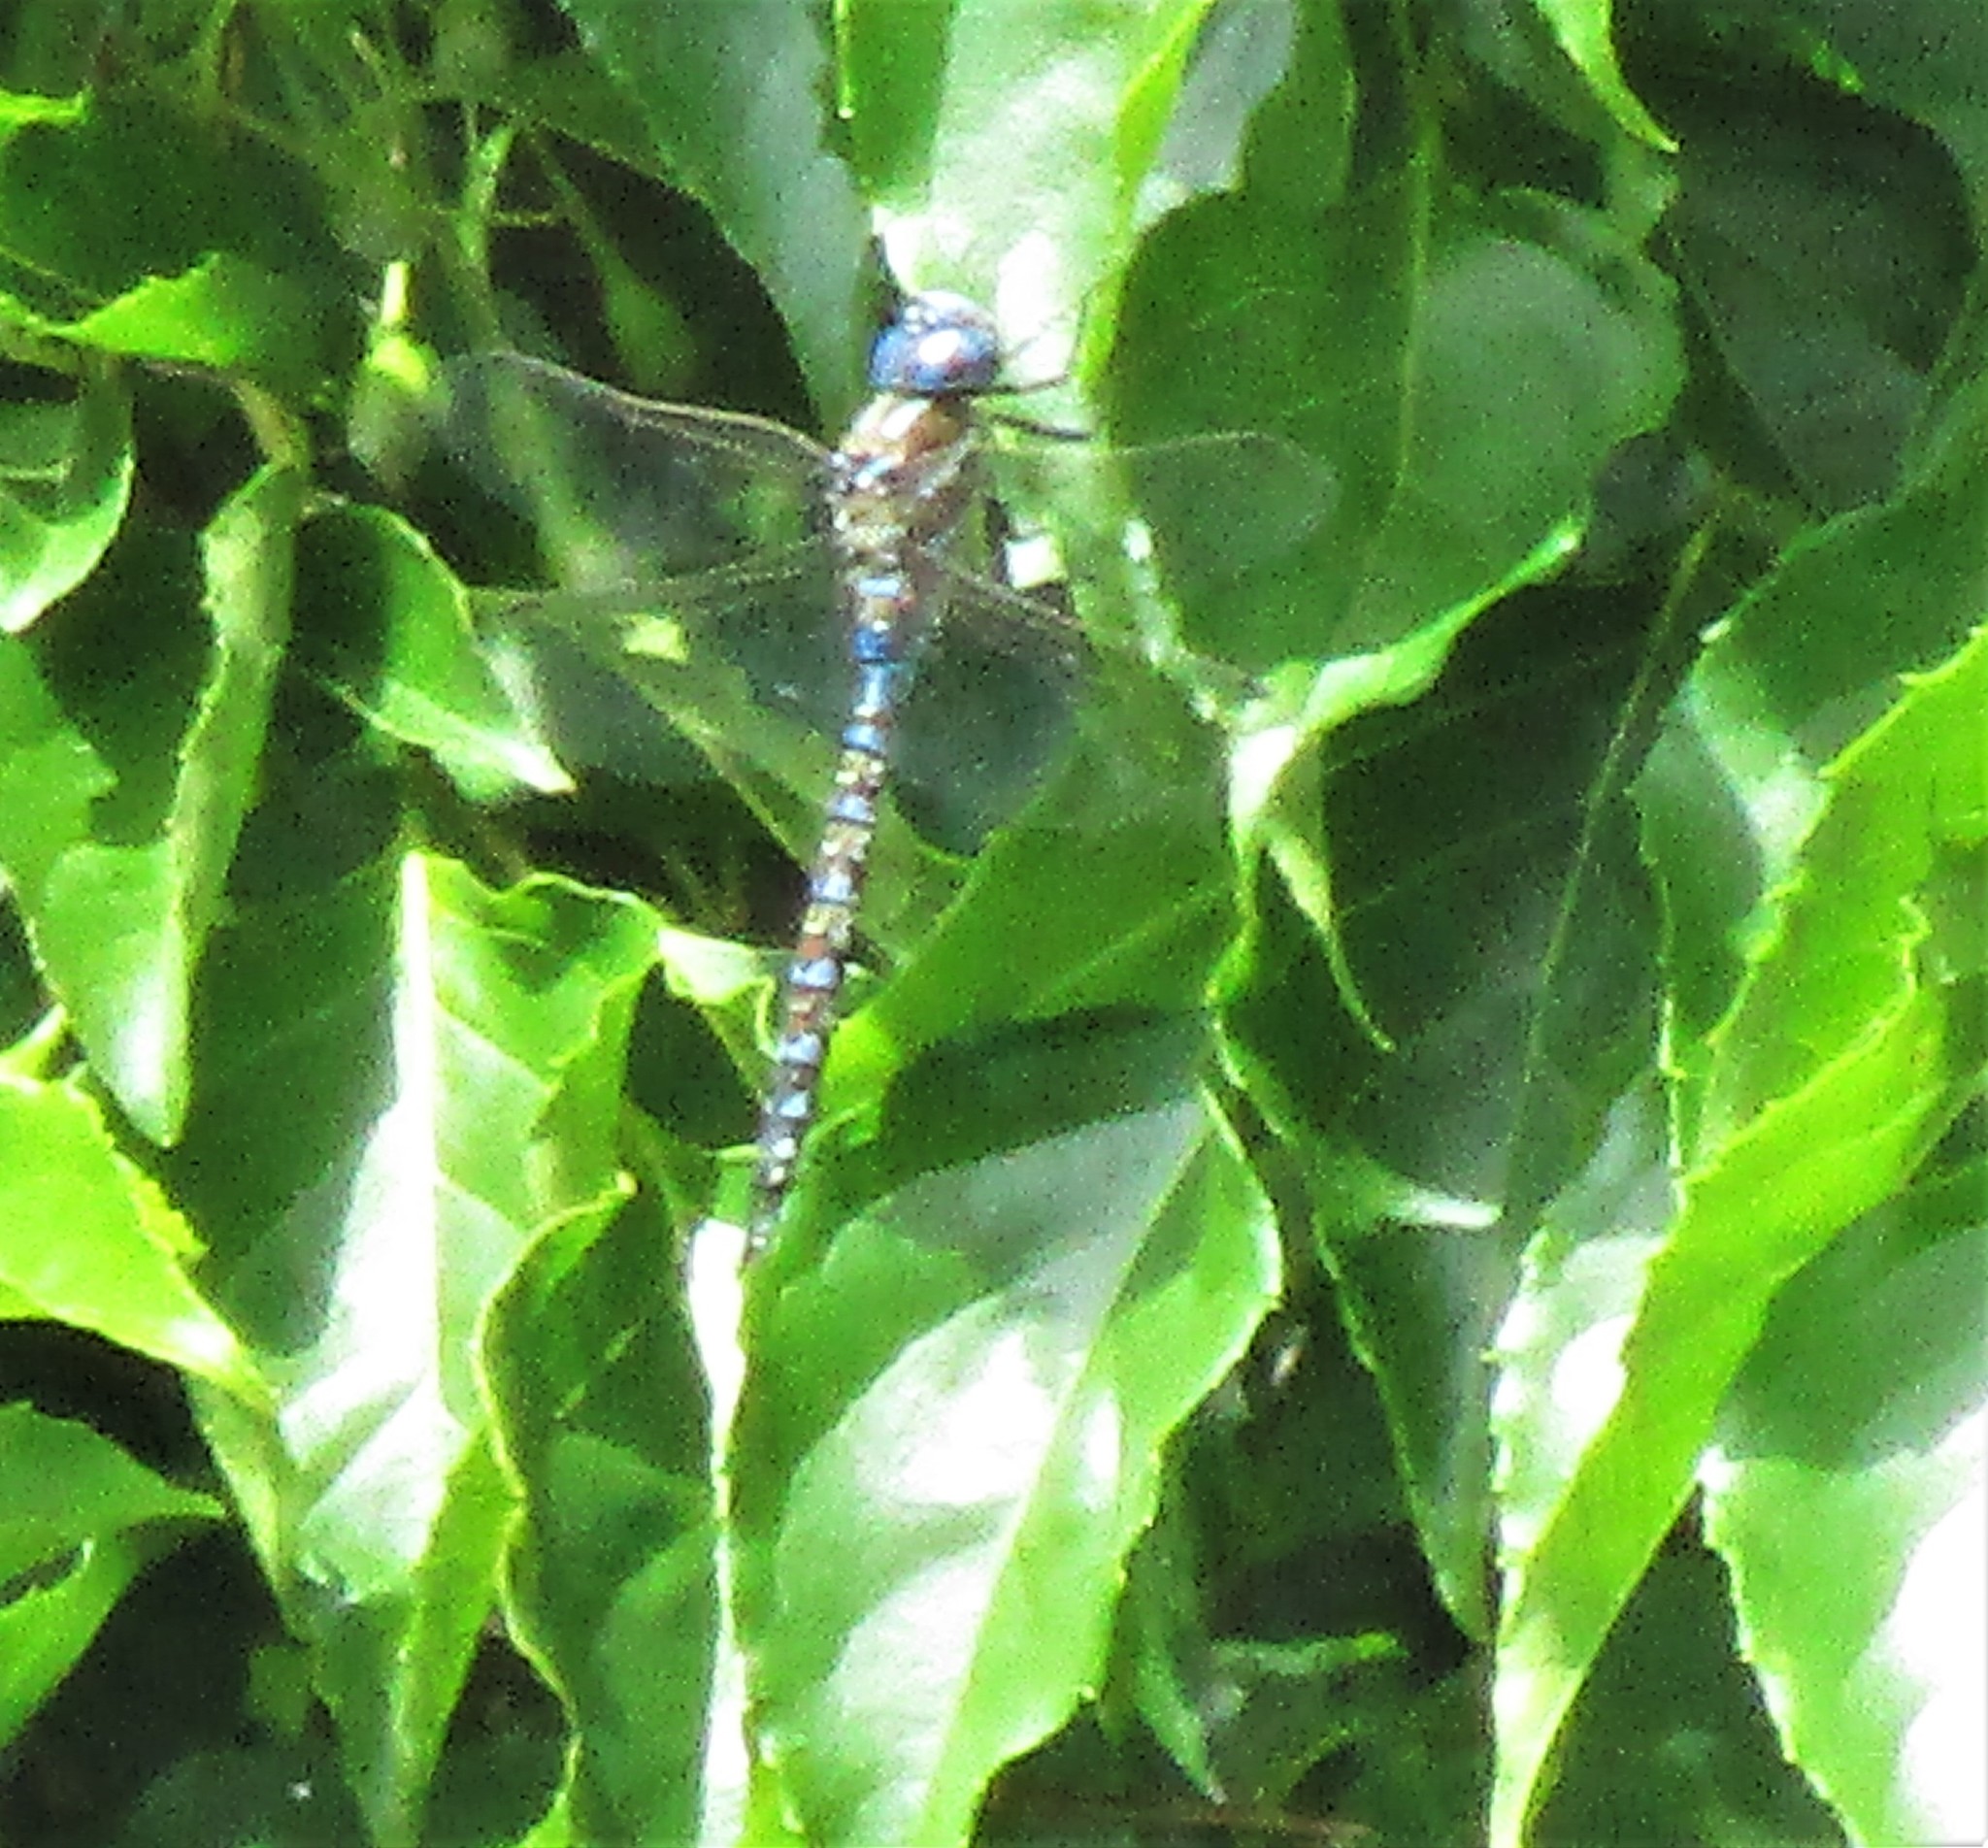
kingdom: Animalia
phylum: Arthropoda
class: Insecta
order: Odonata
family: Aeshnidae
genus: Rhionaeschna
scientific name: Rhionaeschna multicolor
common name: Blue-eyed darner
